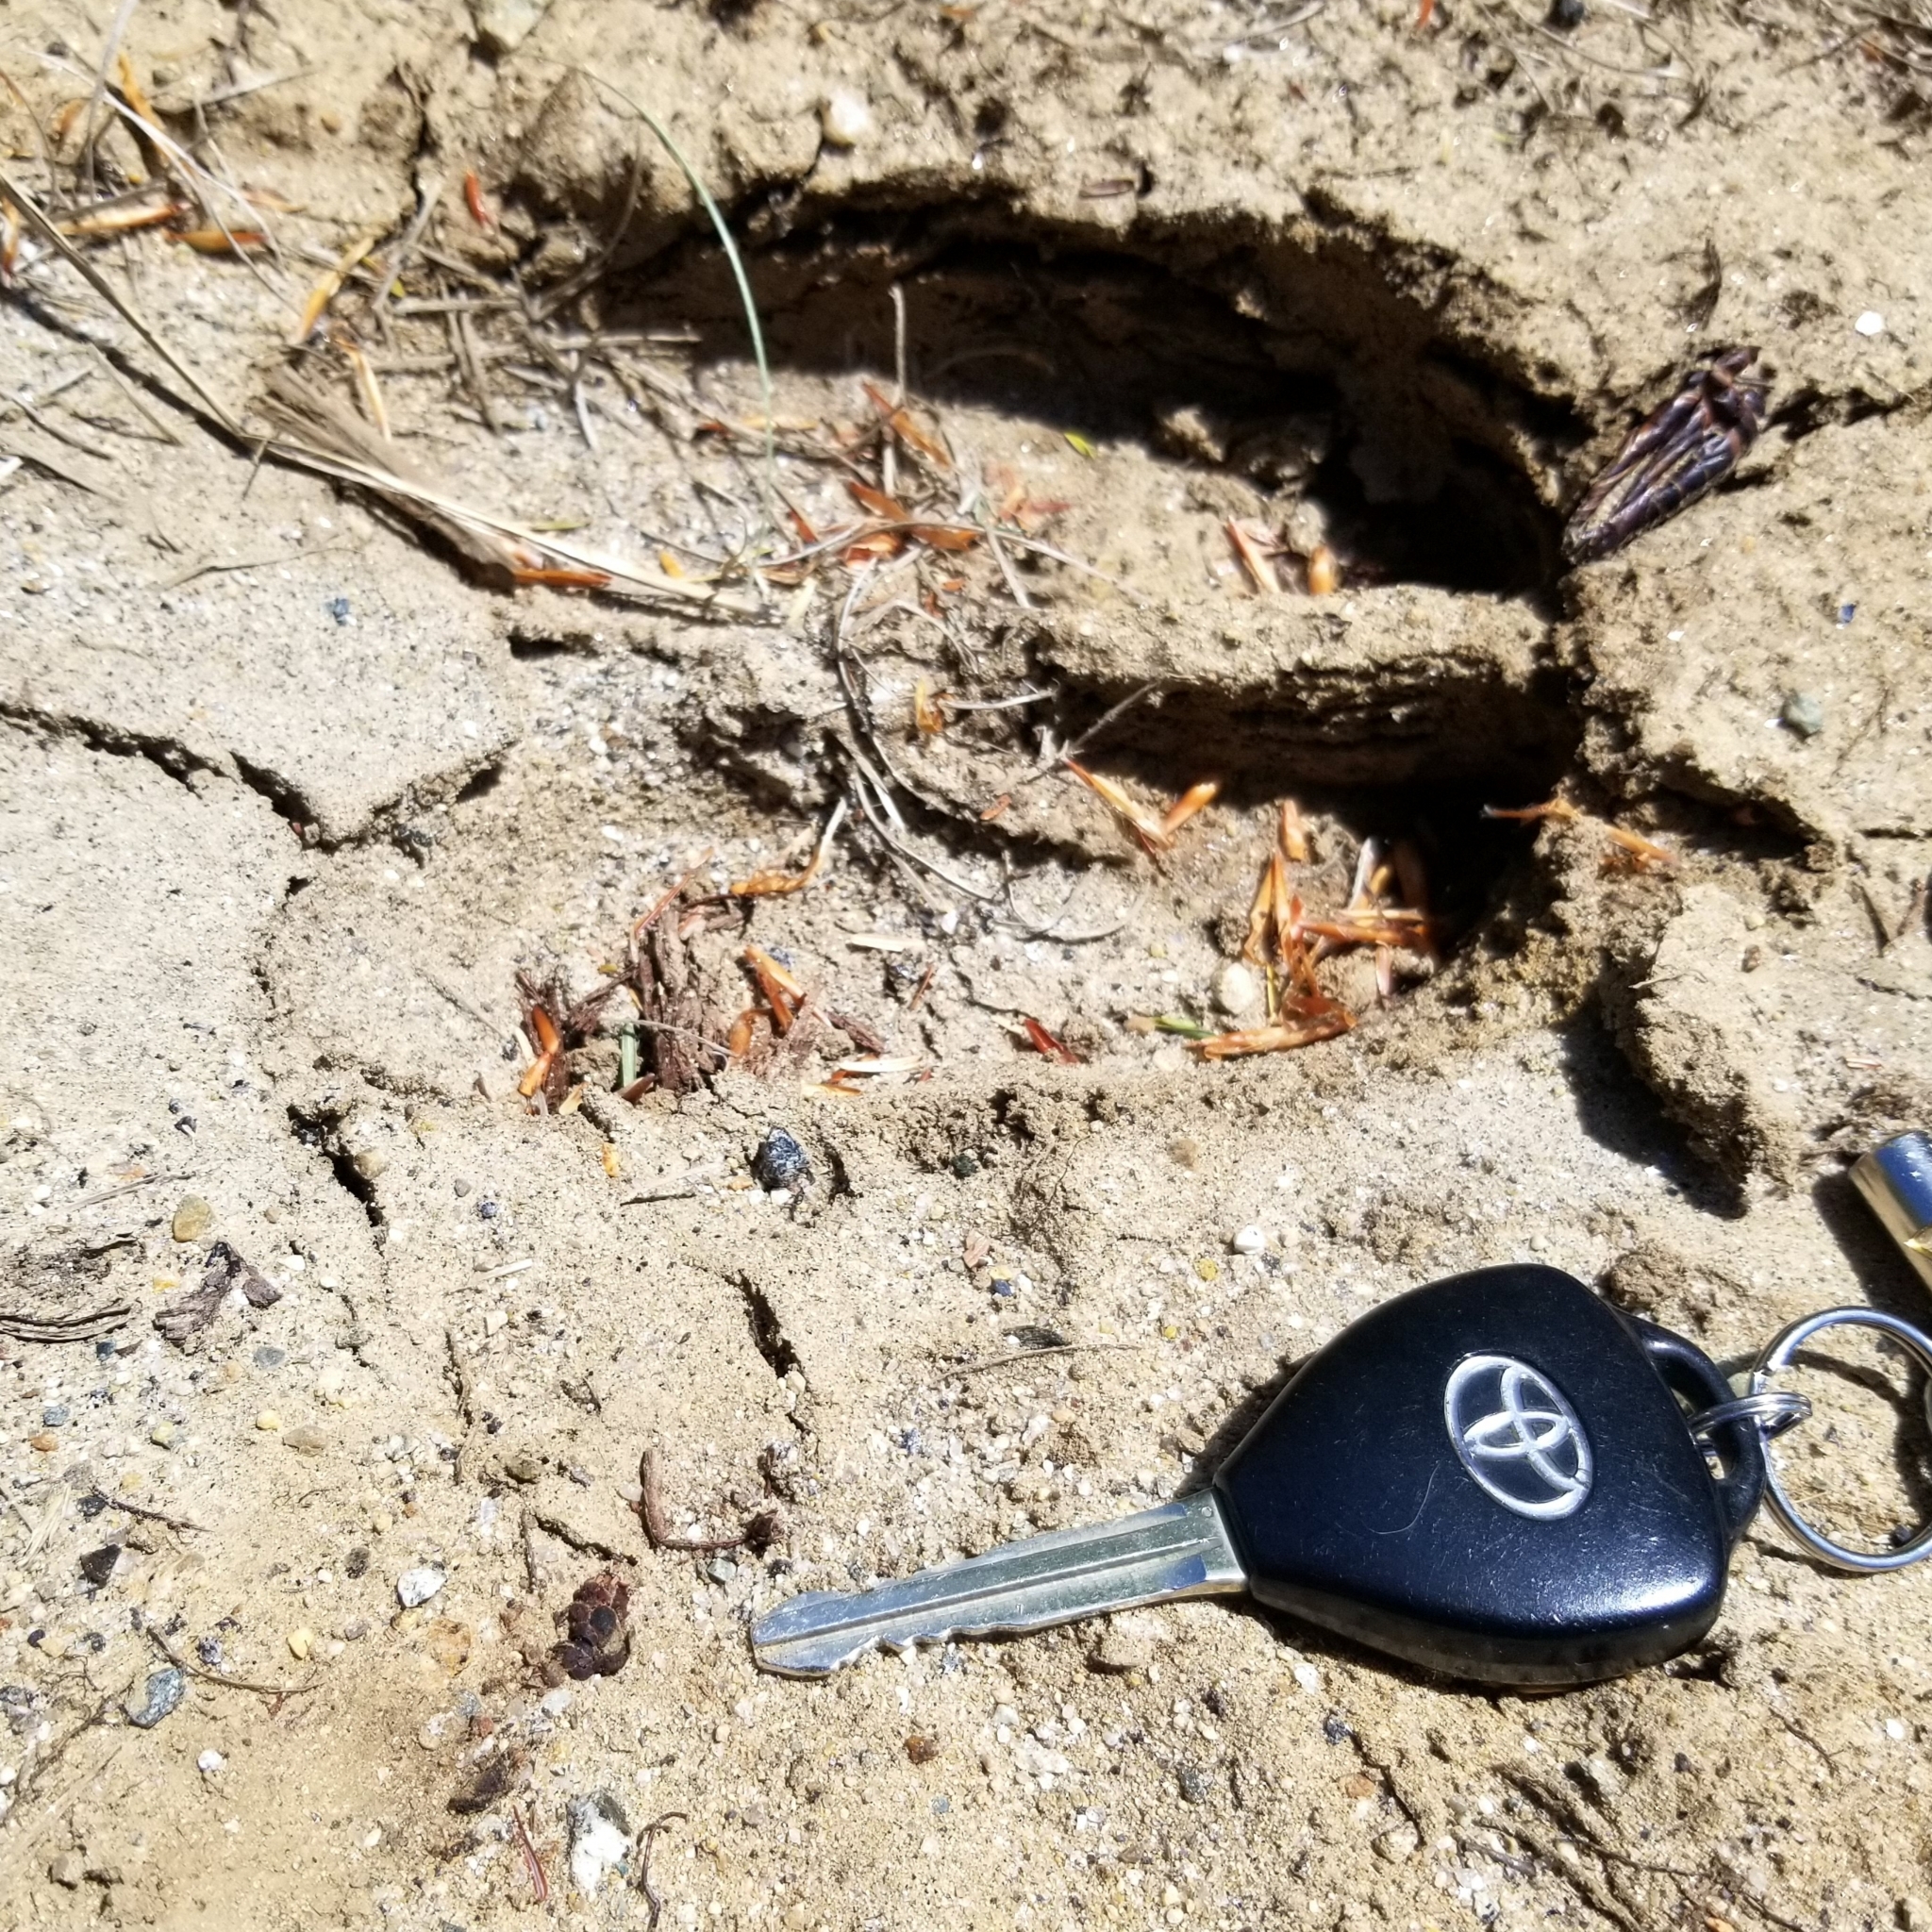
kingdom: Animalia
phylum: Chordata
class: Mammalia
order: Artiodactyla
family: Cervidae
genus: Alces
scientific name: Alces americanus
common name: Moose
